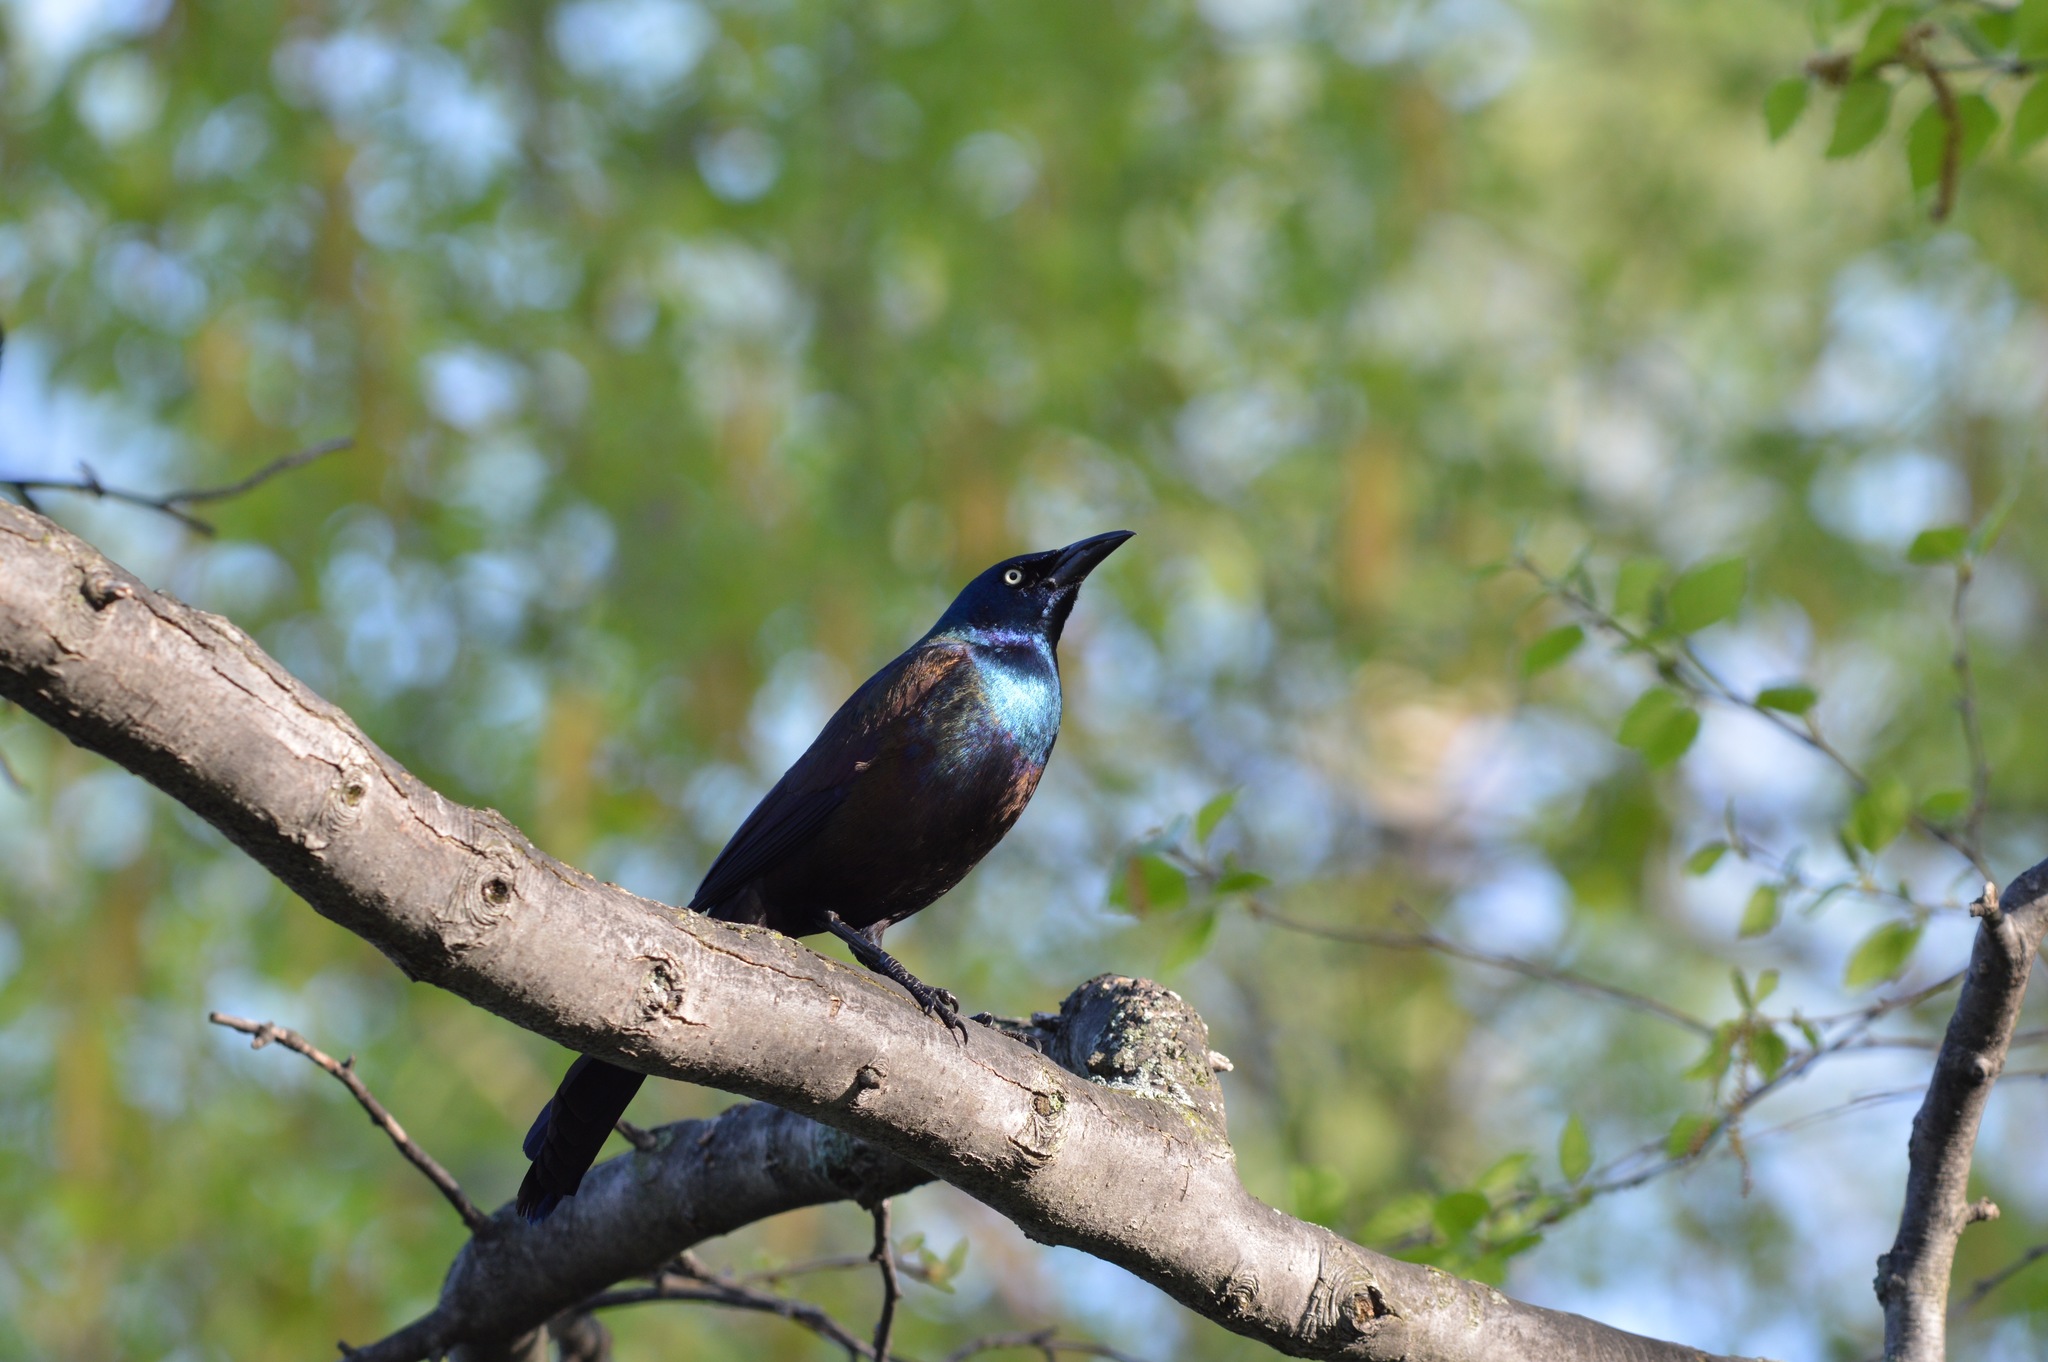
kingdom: Animalia
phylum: Chordata
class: Aves
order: Passeriformes
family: Icteridae
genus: Quiscalus
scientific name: Quiscalus quiscula
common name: Common grackle
